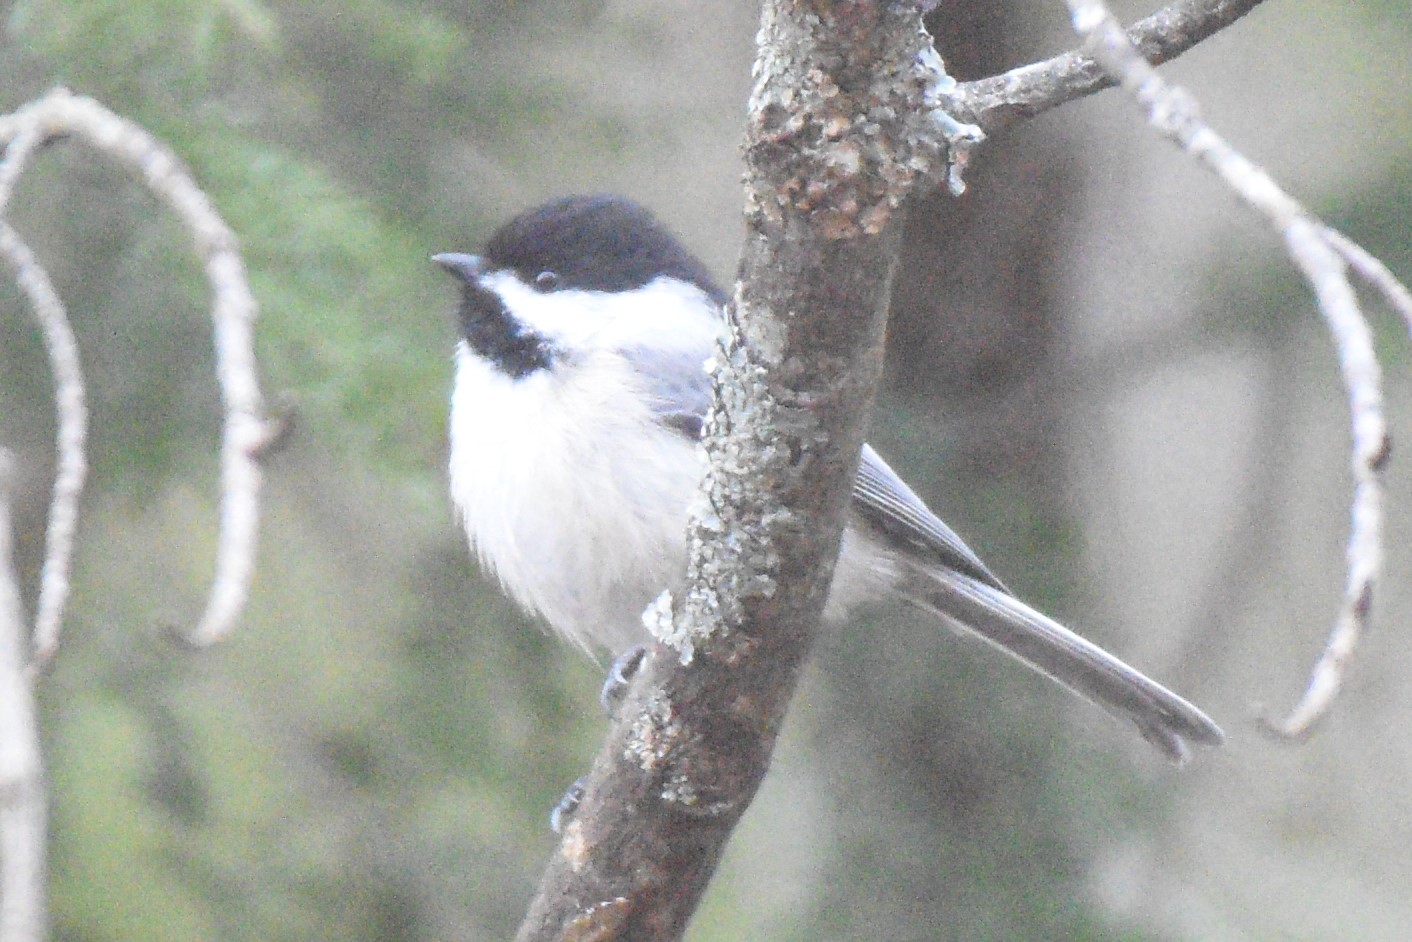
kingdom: Animalia
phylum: Chordata
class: Aves
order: Passeriformes
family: Paridae
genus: Poecile
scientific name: Poecile atricapillus
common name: Black-capped chickadee
